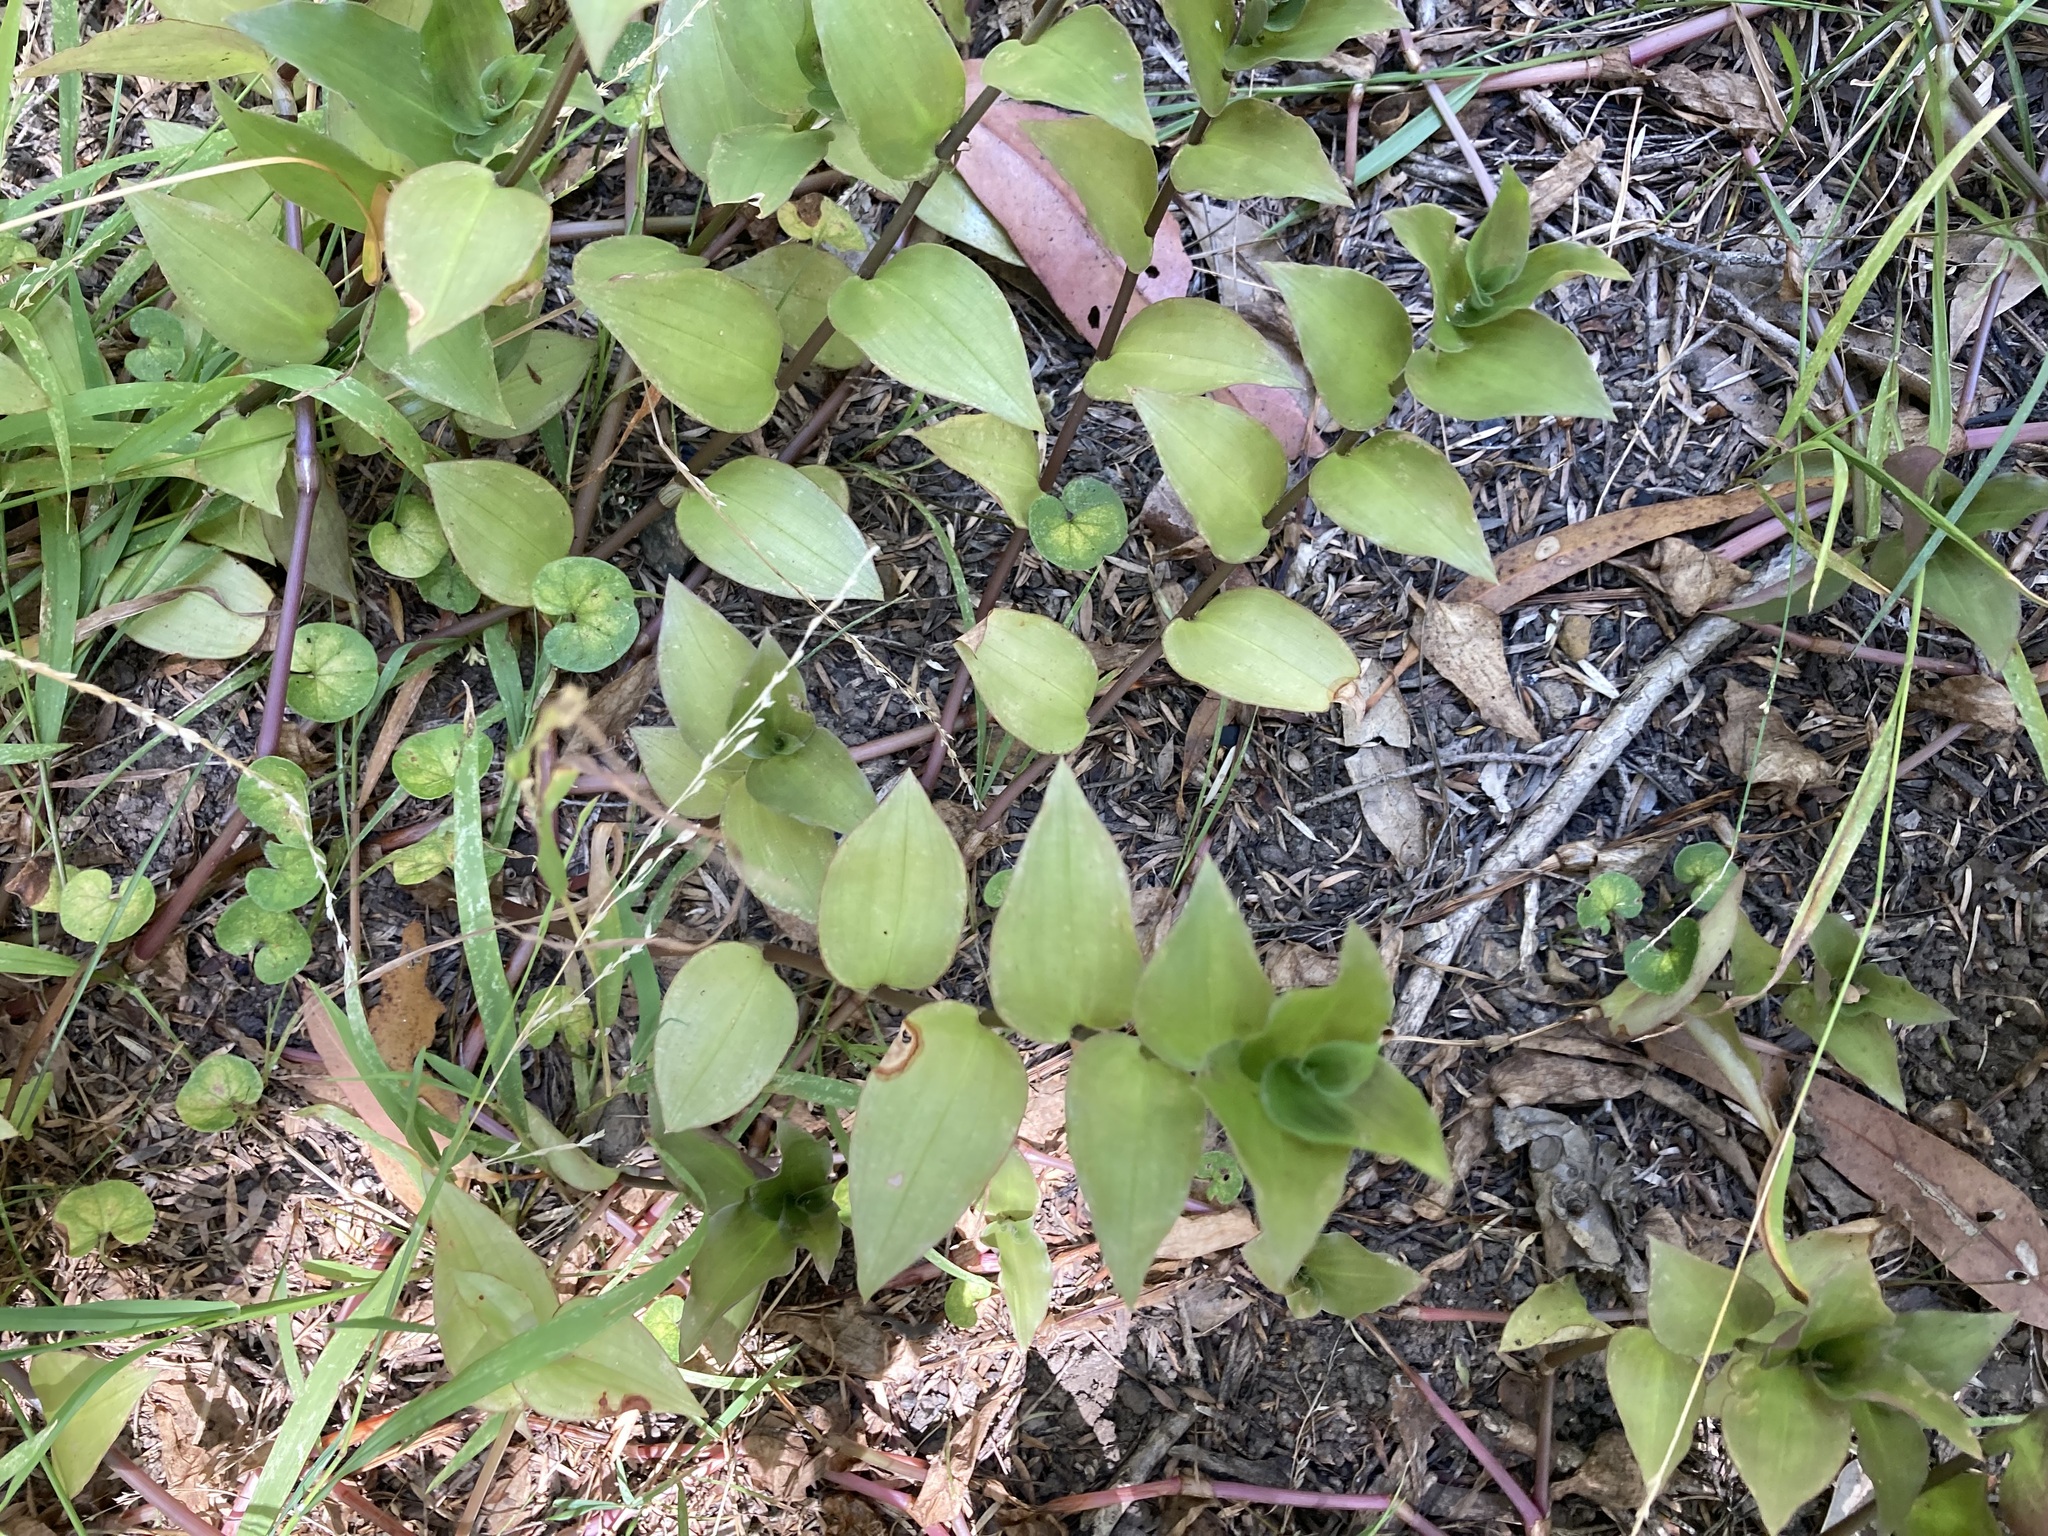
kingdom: Plantae
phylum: Tracheophyta
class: Liliopsida
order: Commelinales
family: Commelinaceae
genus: Tradescantia
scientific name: Tradescantia fluminensis
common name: Wandering-jew
